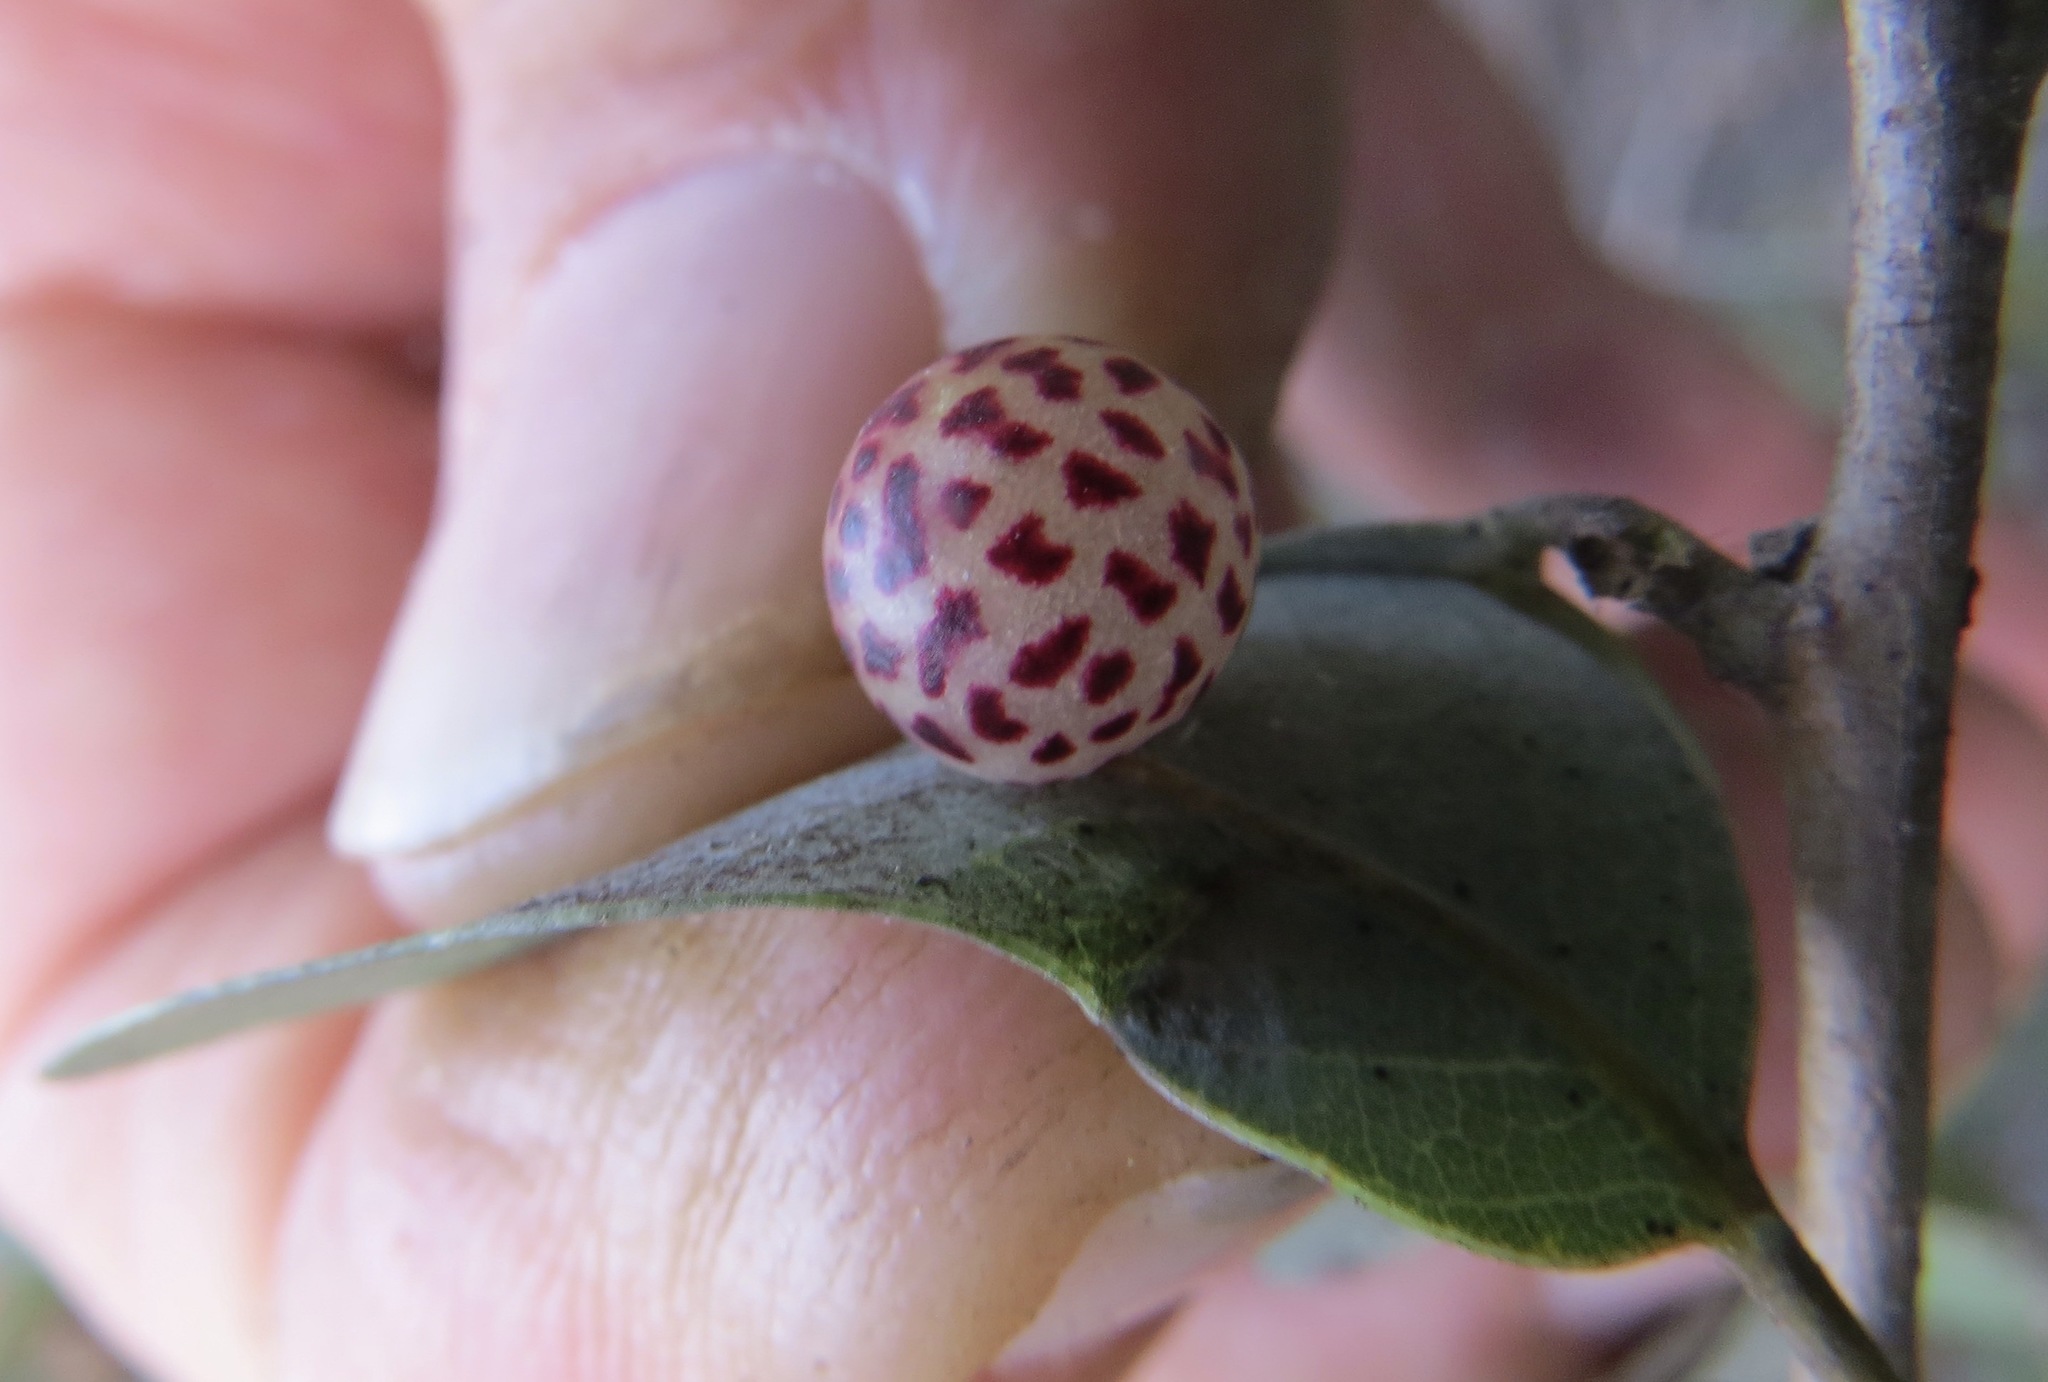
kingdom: Animalia
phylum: Arthropoda
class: Insecta
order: Hymenoptera
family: Cynipidae
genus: Andricus
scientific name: Andricus
